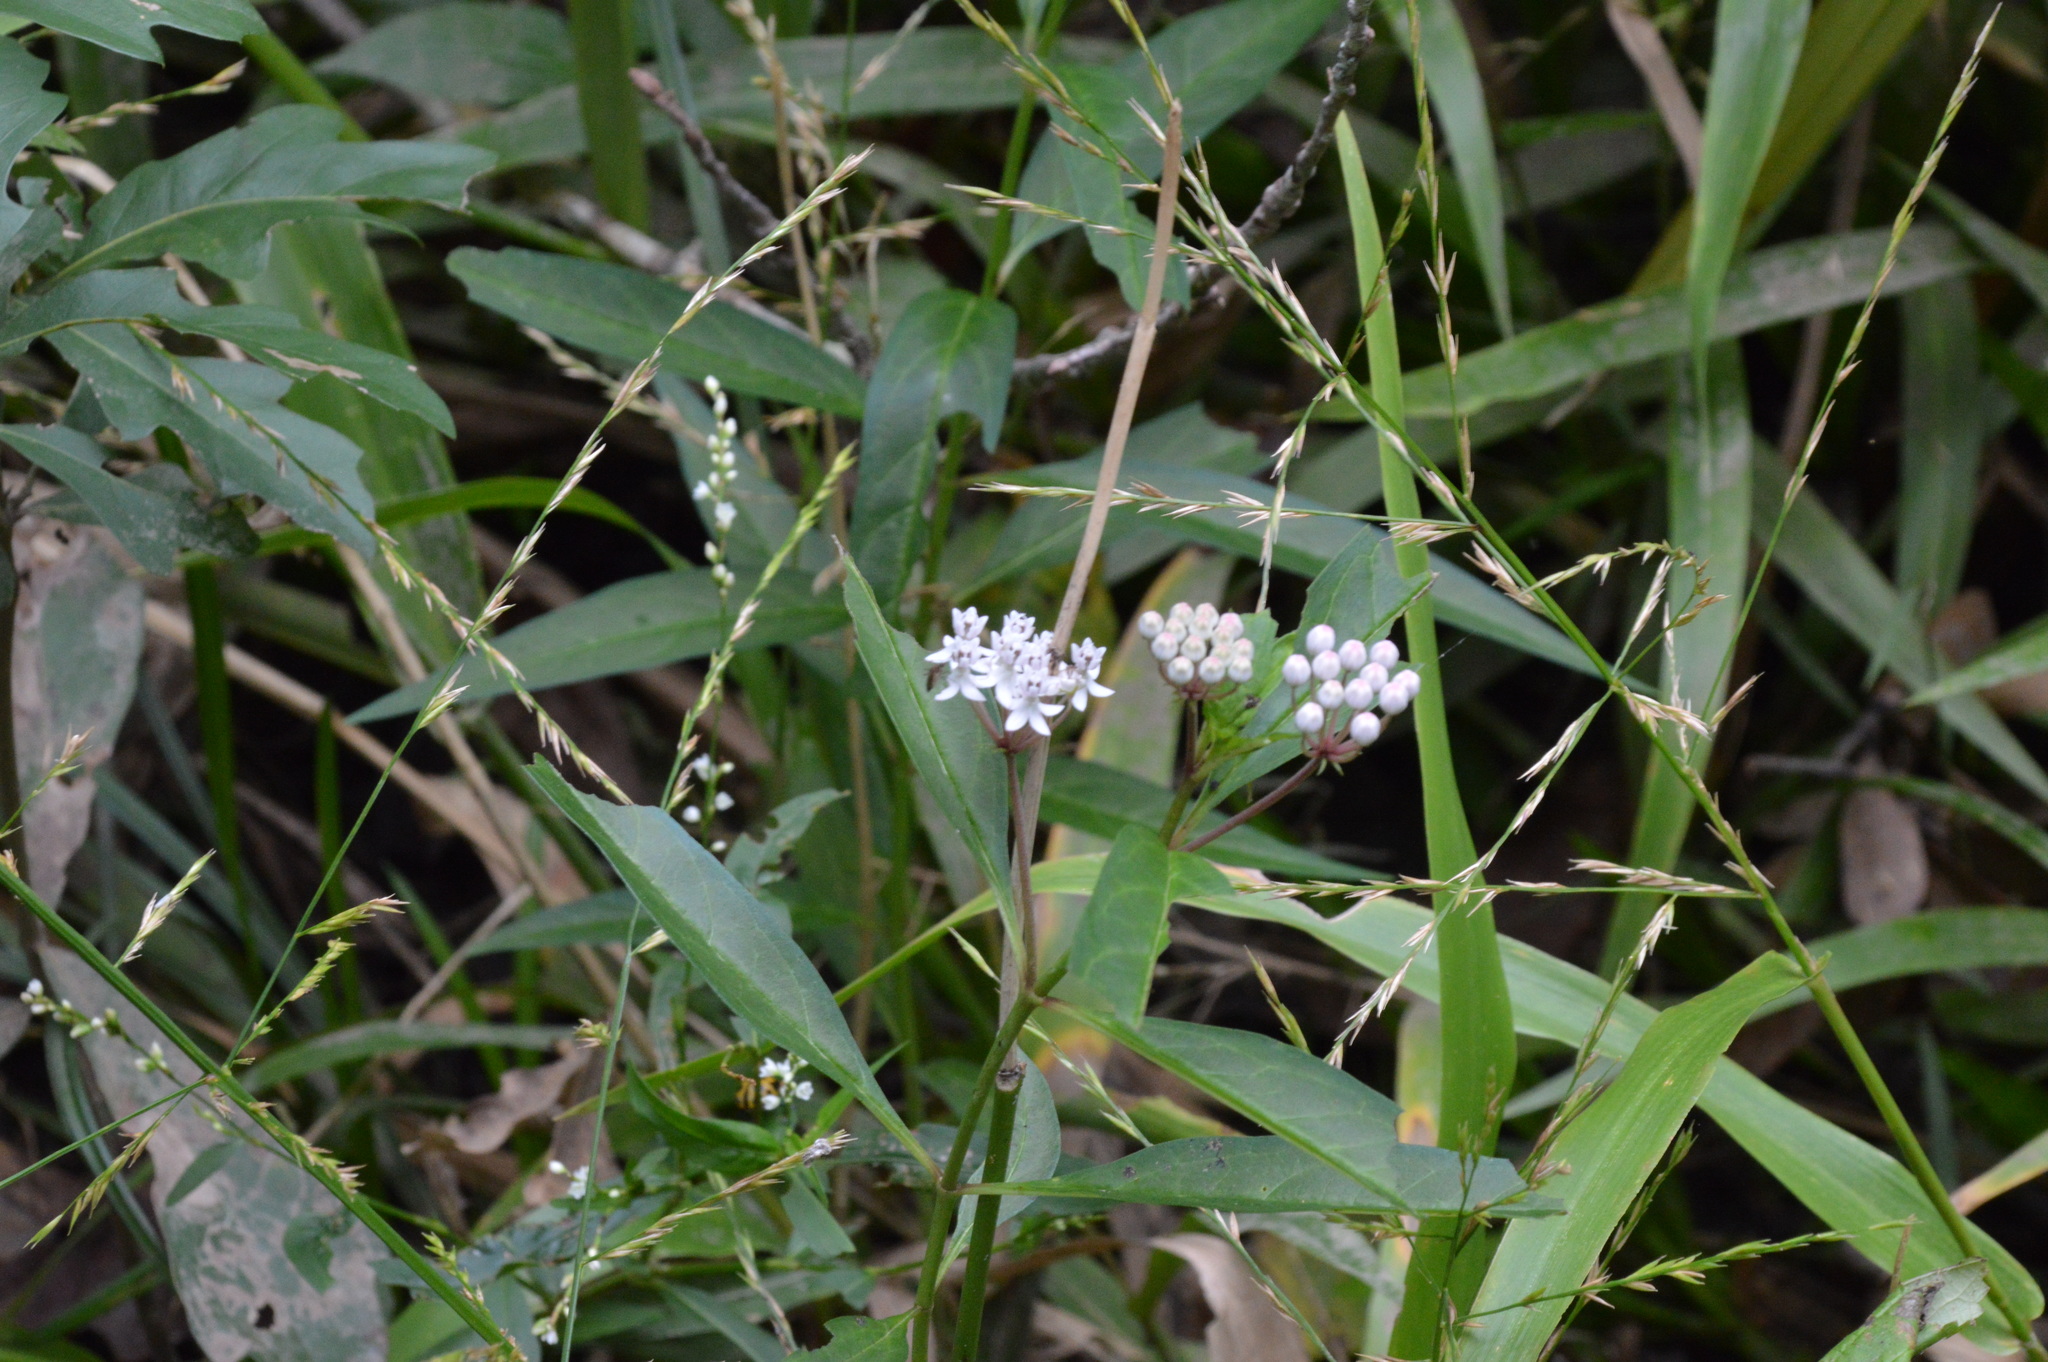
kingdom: Plantae
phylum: Tracheophyta
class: Magnoliopsida
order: Gentianales
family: Apocynaceae
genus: Asclepias
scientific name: Asclepias perennis
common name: Smooth-seed milkweed
